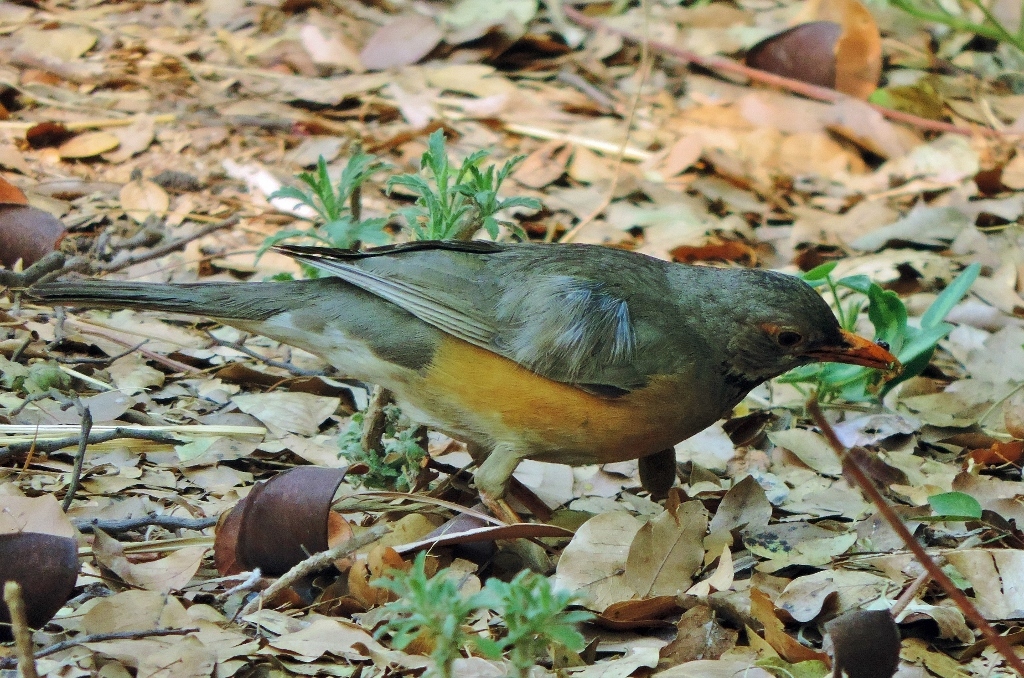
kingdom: Animalia
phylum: Chordata
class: Aves
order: Passeriformes
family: Turdidae
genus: Turdus
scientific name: Turdus libonyana
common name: Kurrichane thrush
